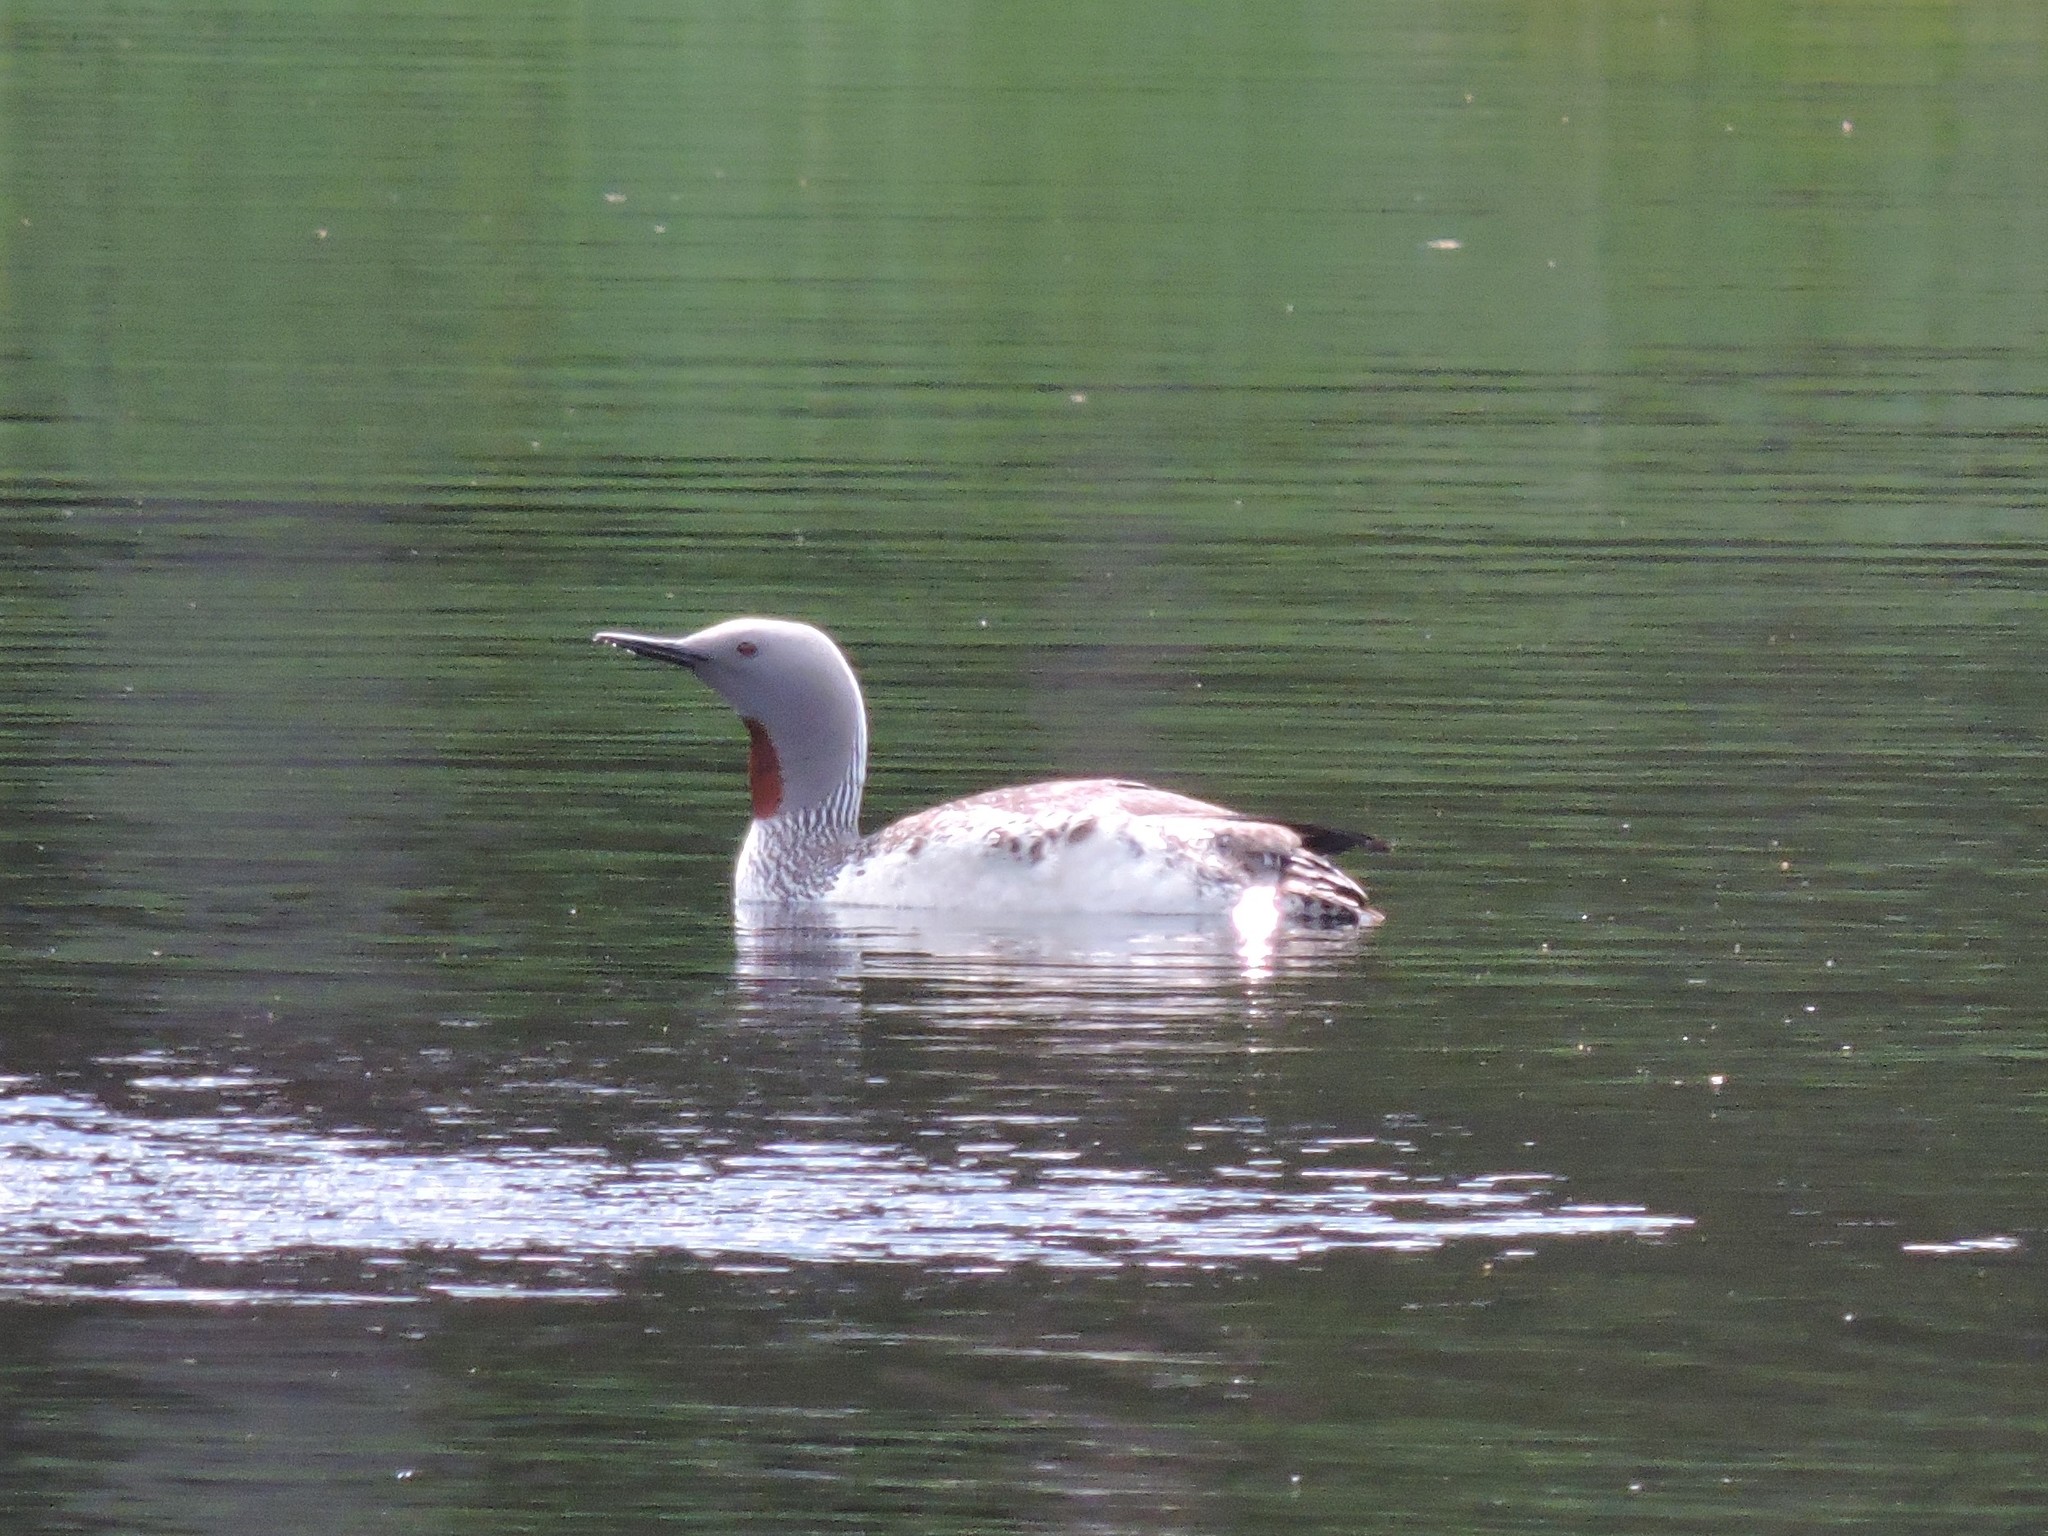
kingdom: Animalia
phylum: Chordata
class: Aves
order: Gaviiformes
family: Gaviidae
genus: Gavia
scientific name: Gavia stellata
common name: Red-throated loon
